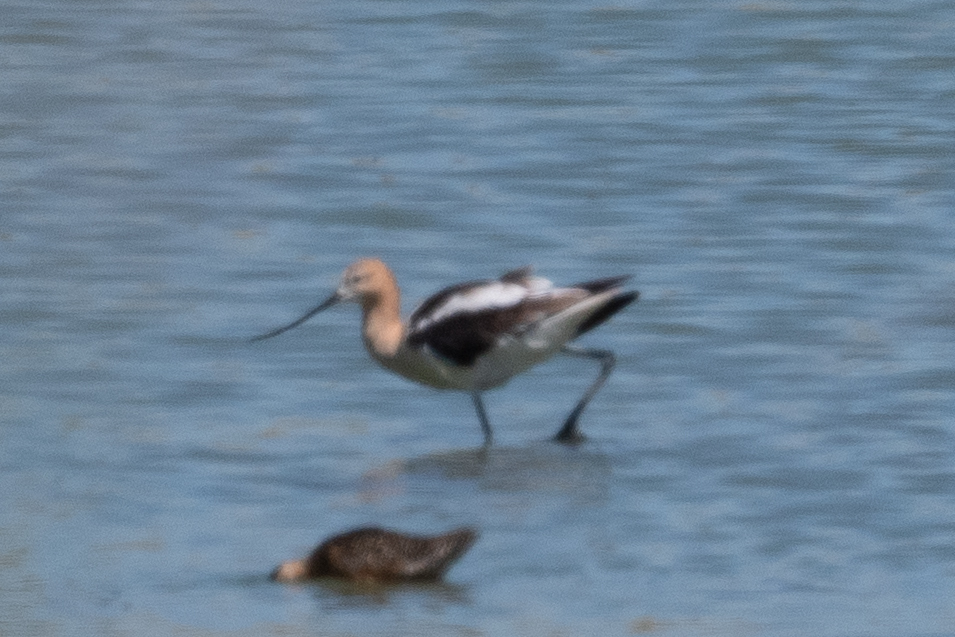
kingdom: Animalia
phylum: Chordata
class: Aves
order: Charadriiformes
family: Recurvirostridae
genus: Recurvirostra
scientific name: Recurvirostra americana
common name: American avocet
